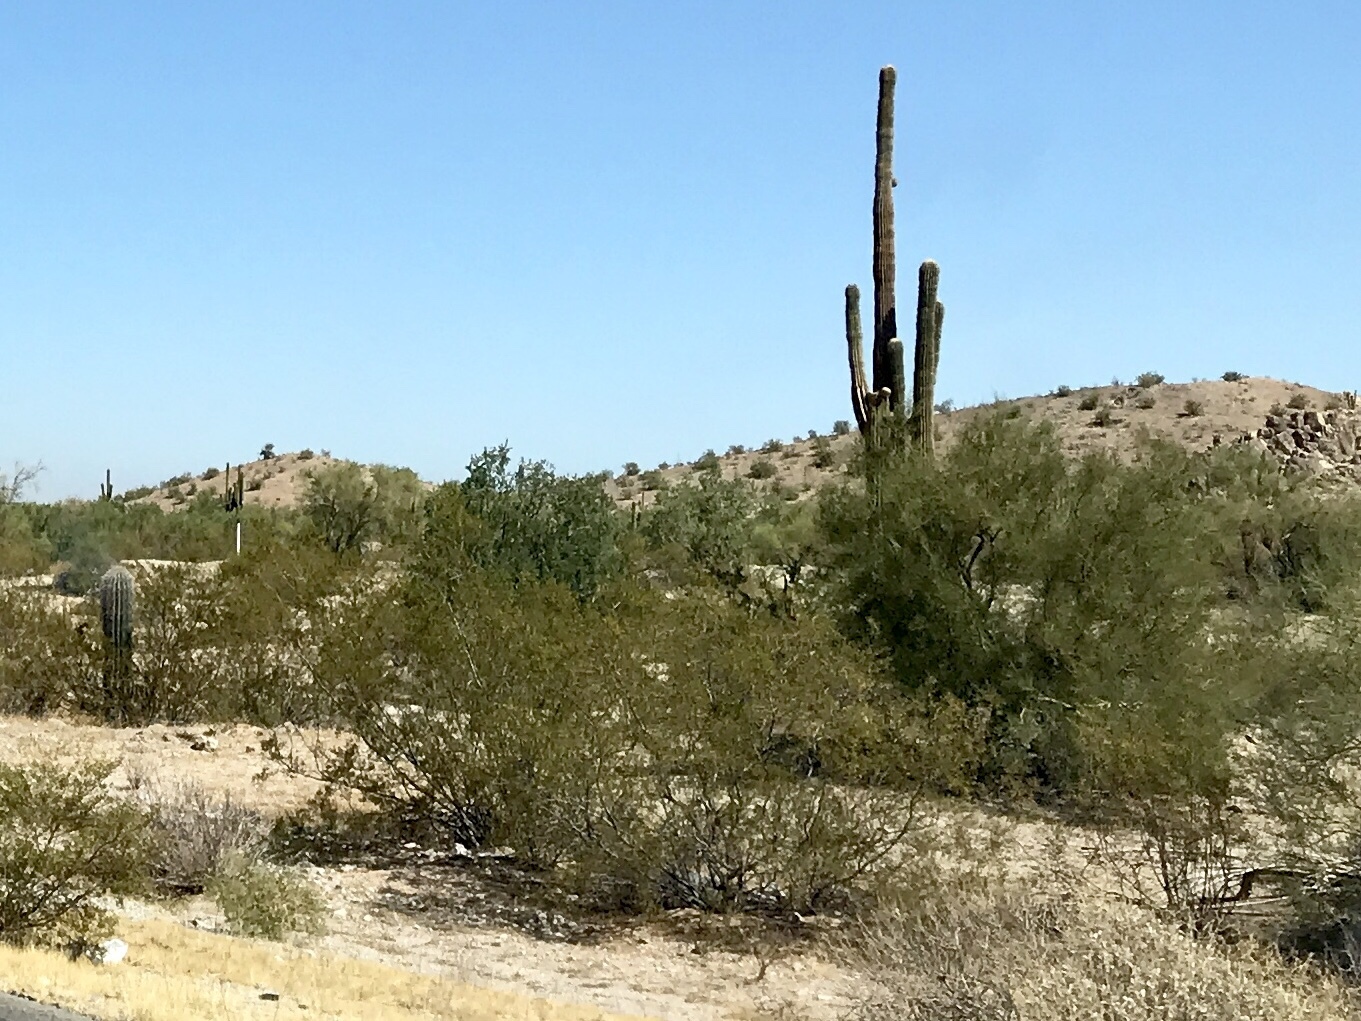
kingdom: Plantae
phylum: Tracheophyta
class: Magnoliopsida
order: Zygophyllales
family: Zygophyllaceae
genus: Larrea
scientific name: Larrea tridentata
